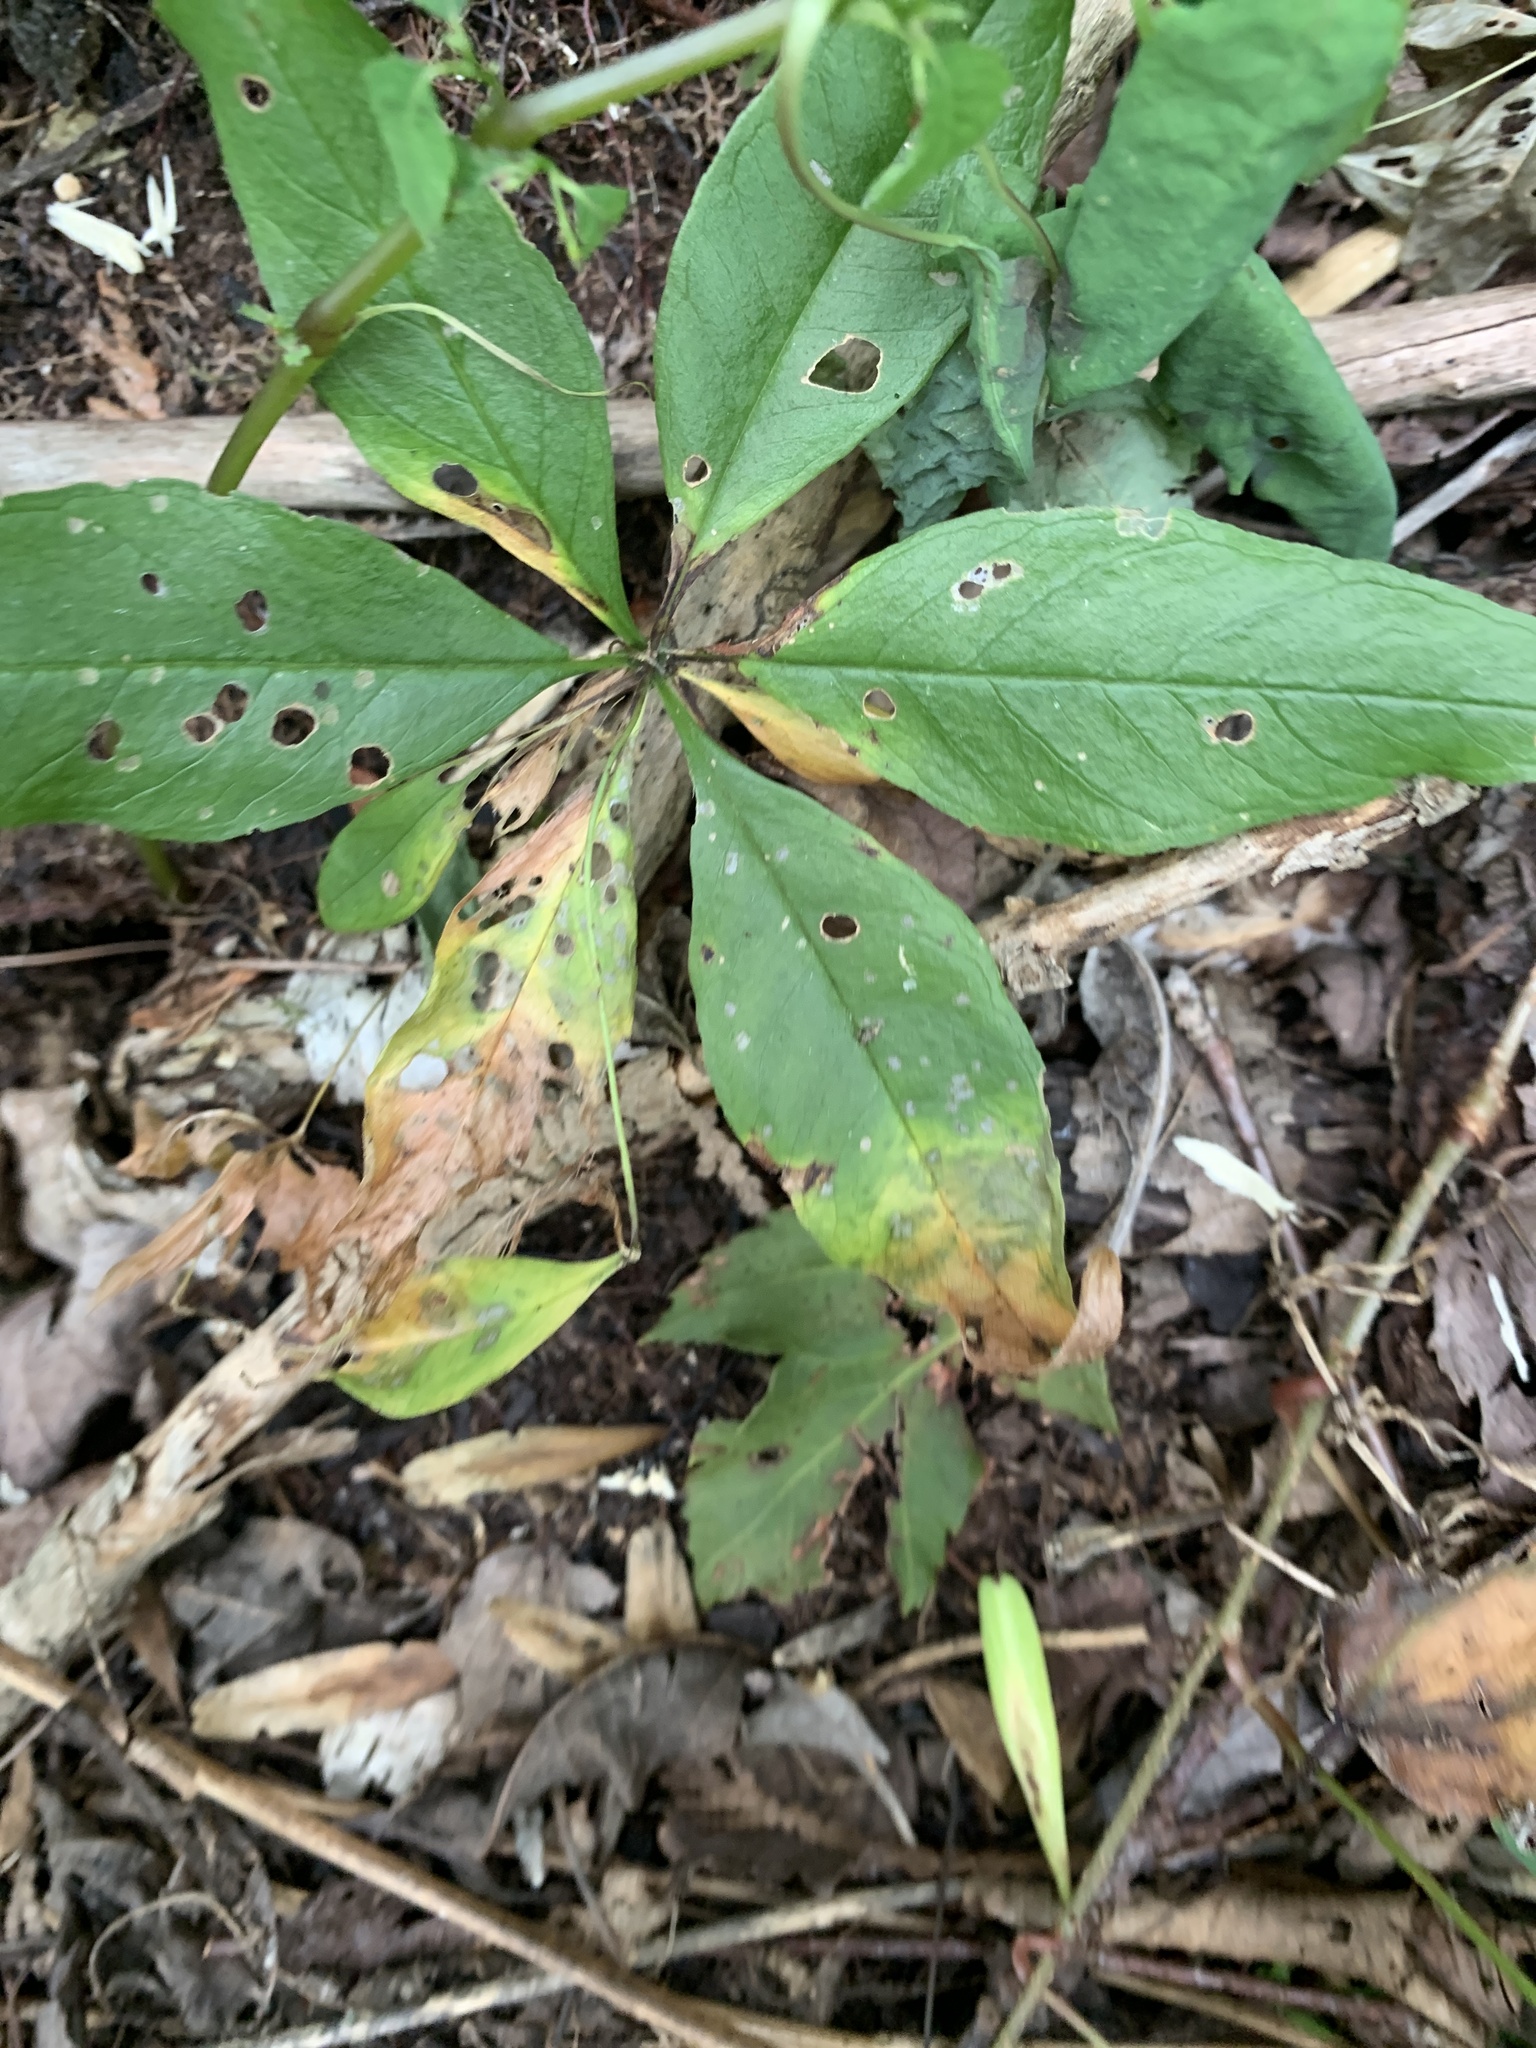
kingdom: Plantae
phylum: Tracheophyta
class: Magnoliopsida
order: Ericales
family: Primulaceae
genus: Lysimachia
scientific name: Lysimachia borealis
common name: American starflower
